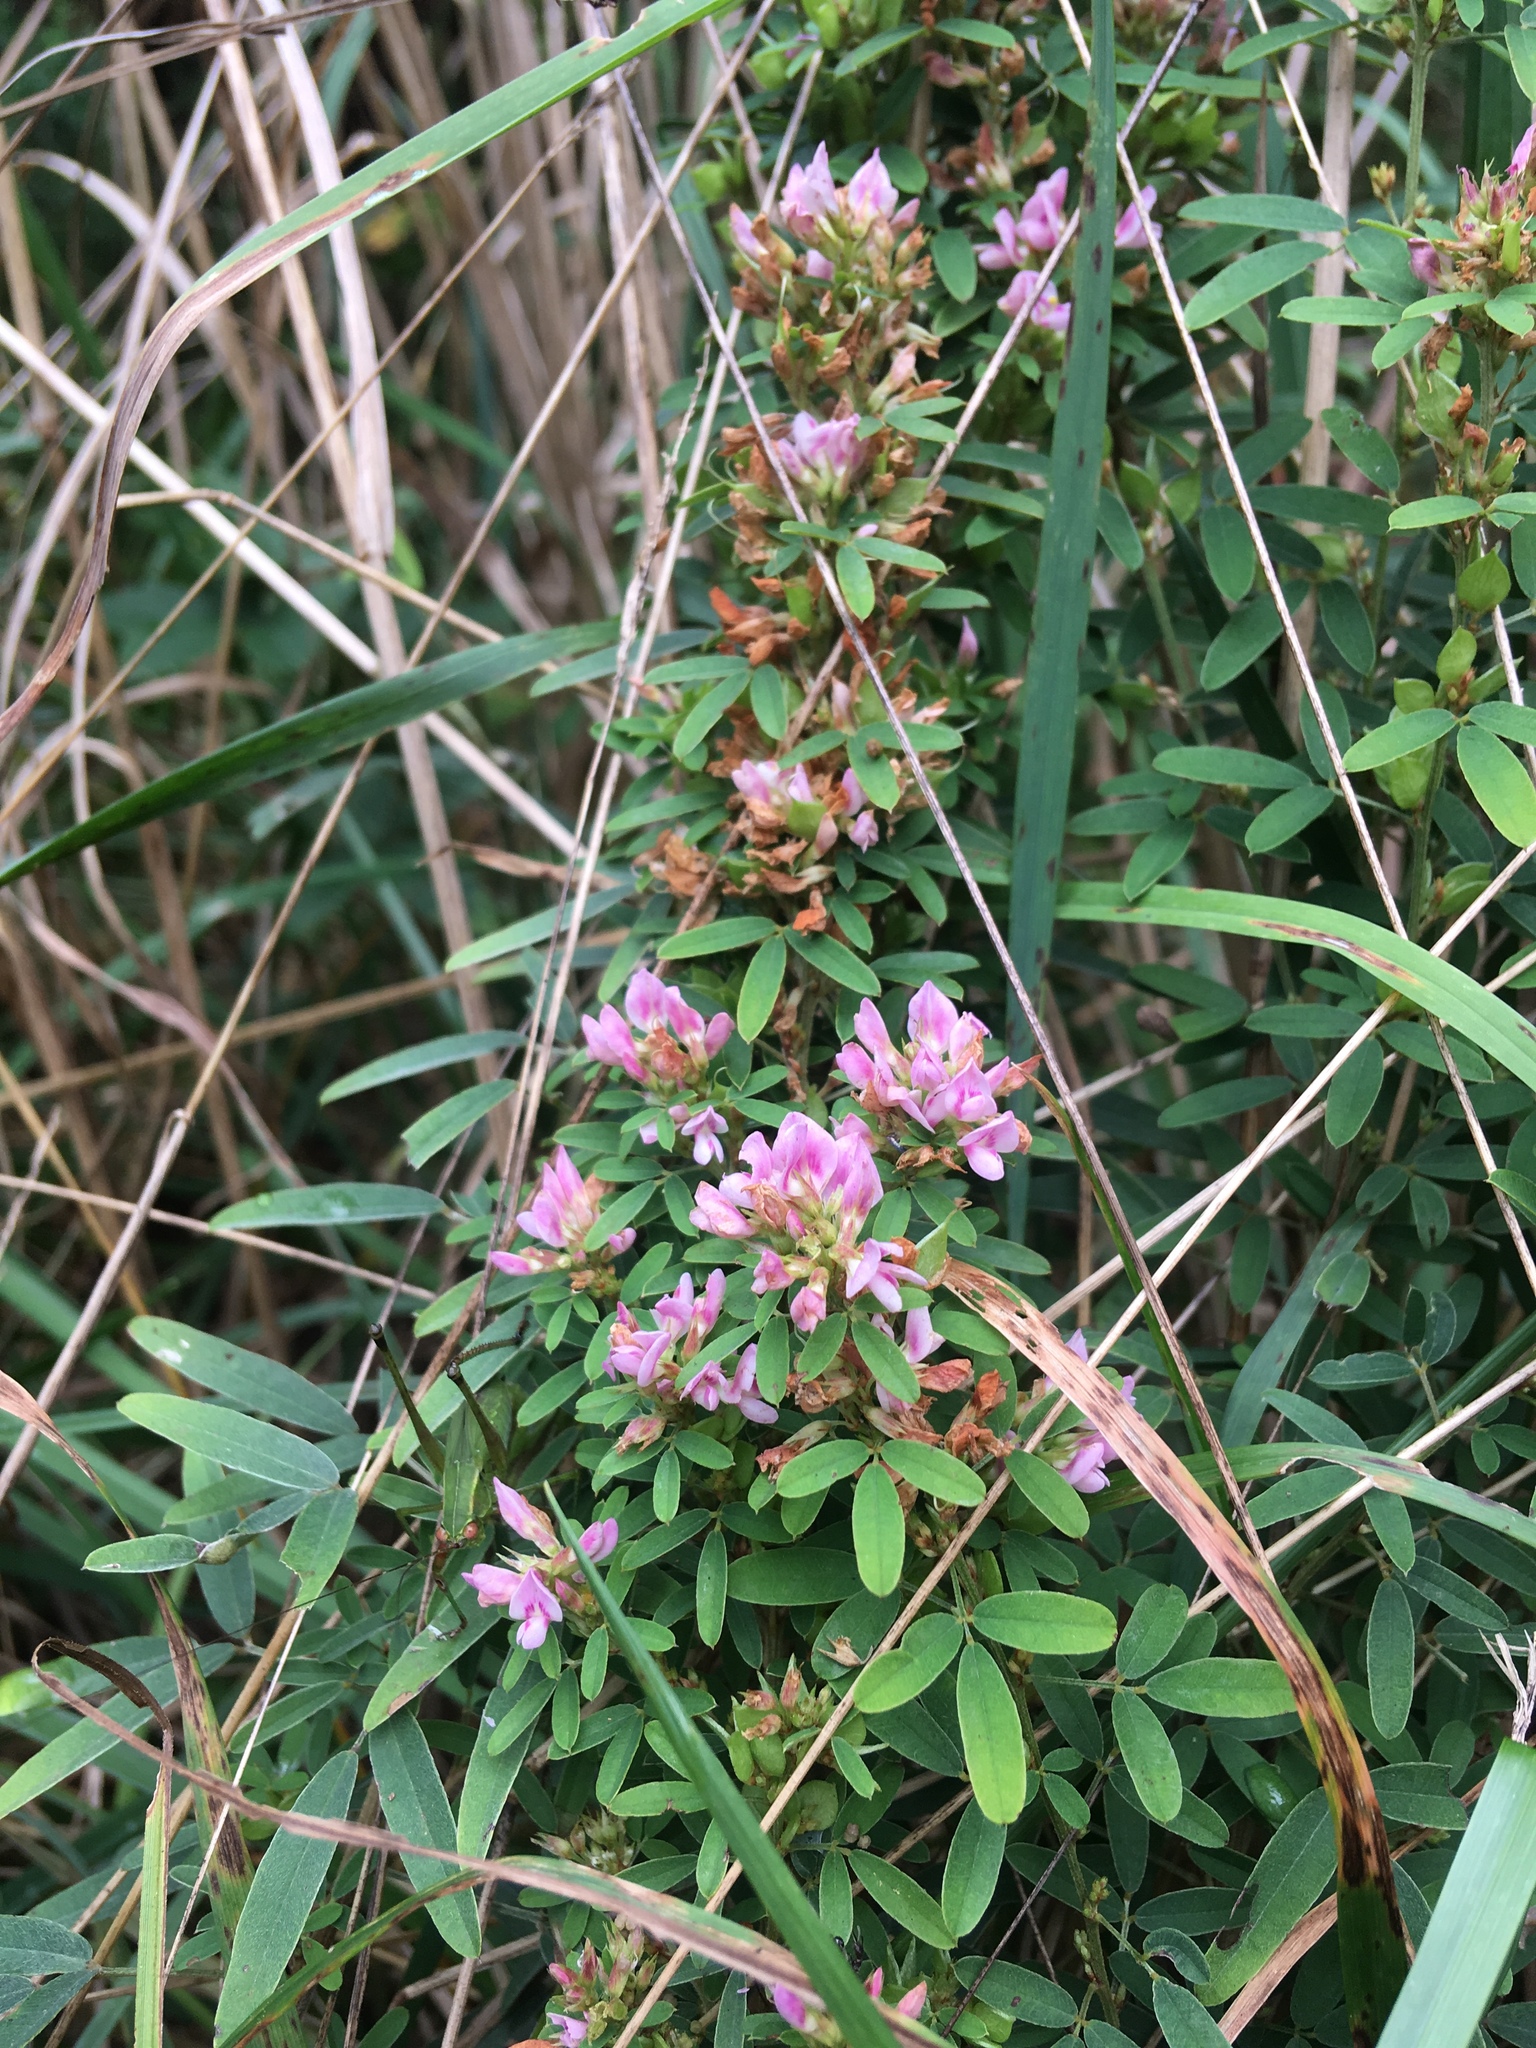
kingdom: Plantae
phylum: Tracheophyta
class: Magnoliopsida
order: Fabales
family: Fabaceae
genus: Lespedeza
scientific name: Lespedeza virginica
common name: Slender bush-clover
